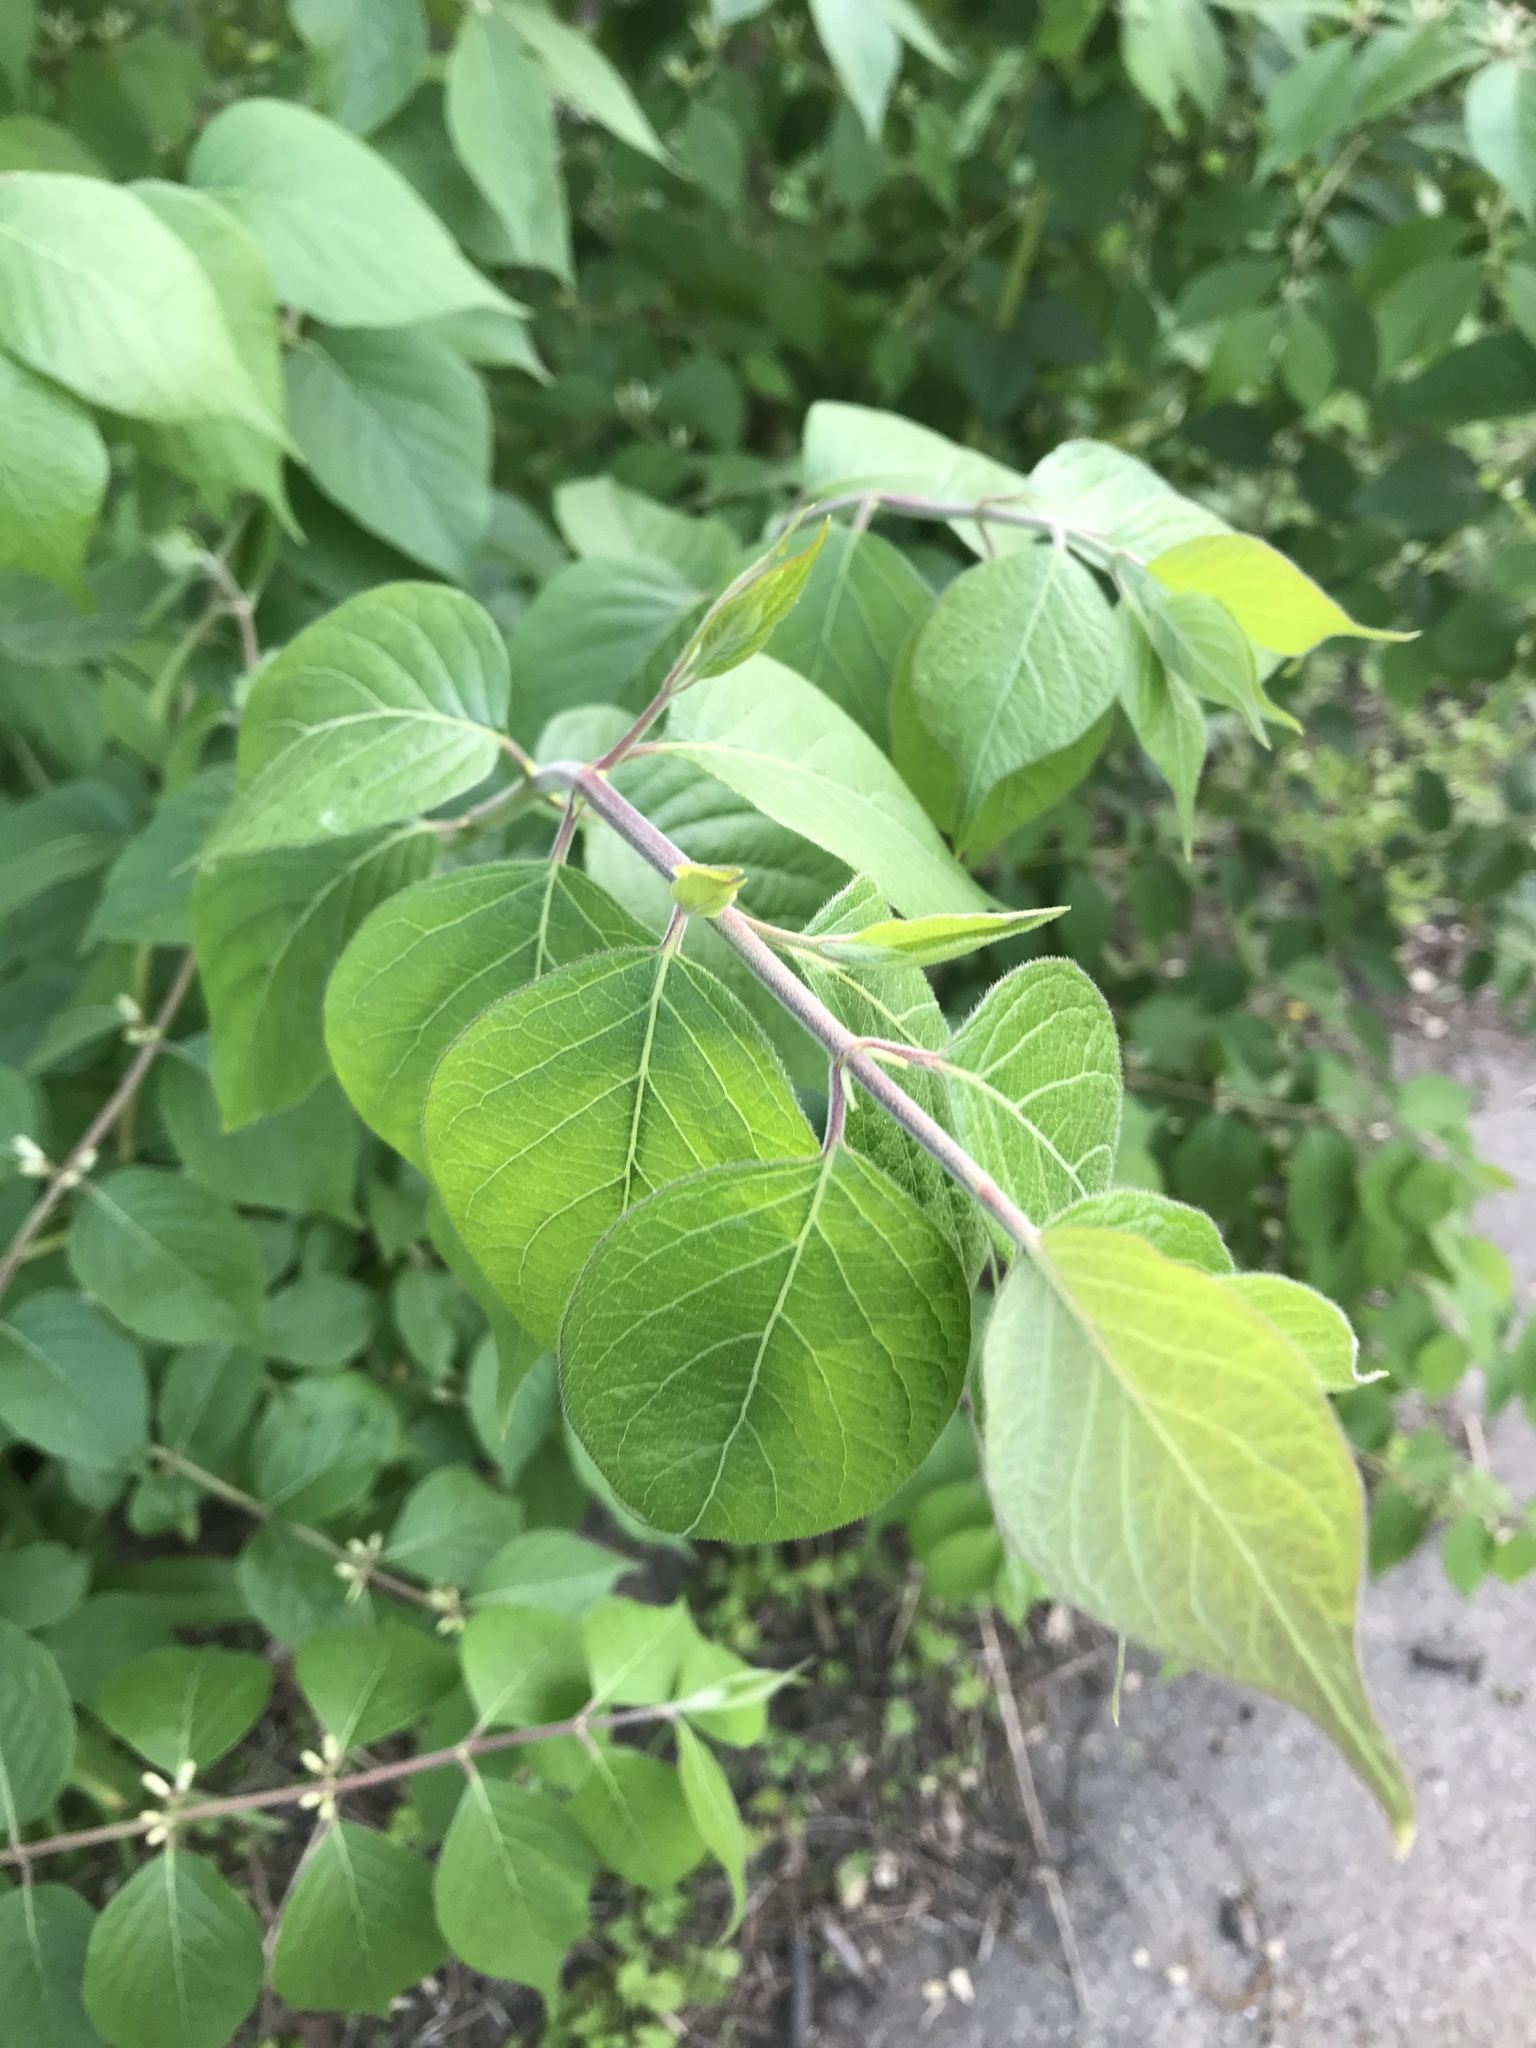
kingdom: Plantae
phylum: Tracheophyta
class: Magnoliopsida
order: Dipsacales
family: Caprifoliaceae
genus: Lonicera
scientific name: Lonicera maackii
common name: Amur honeysuckle
